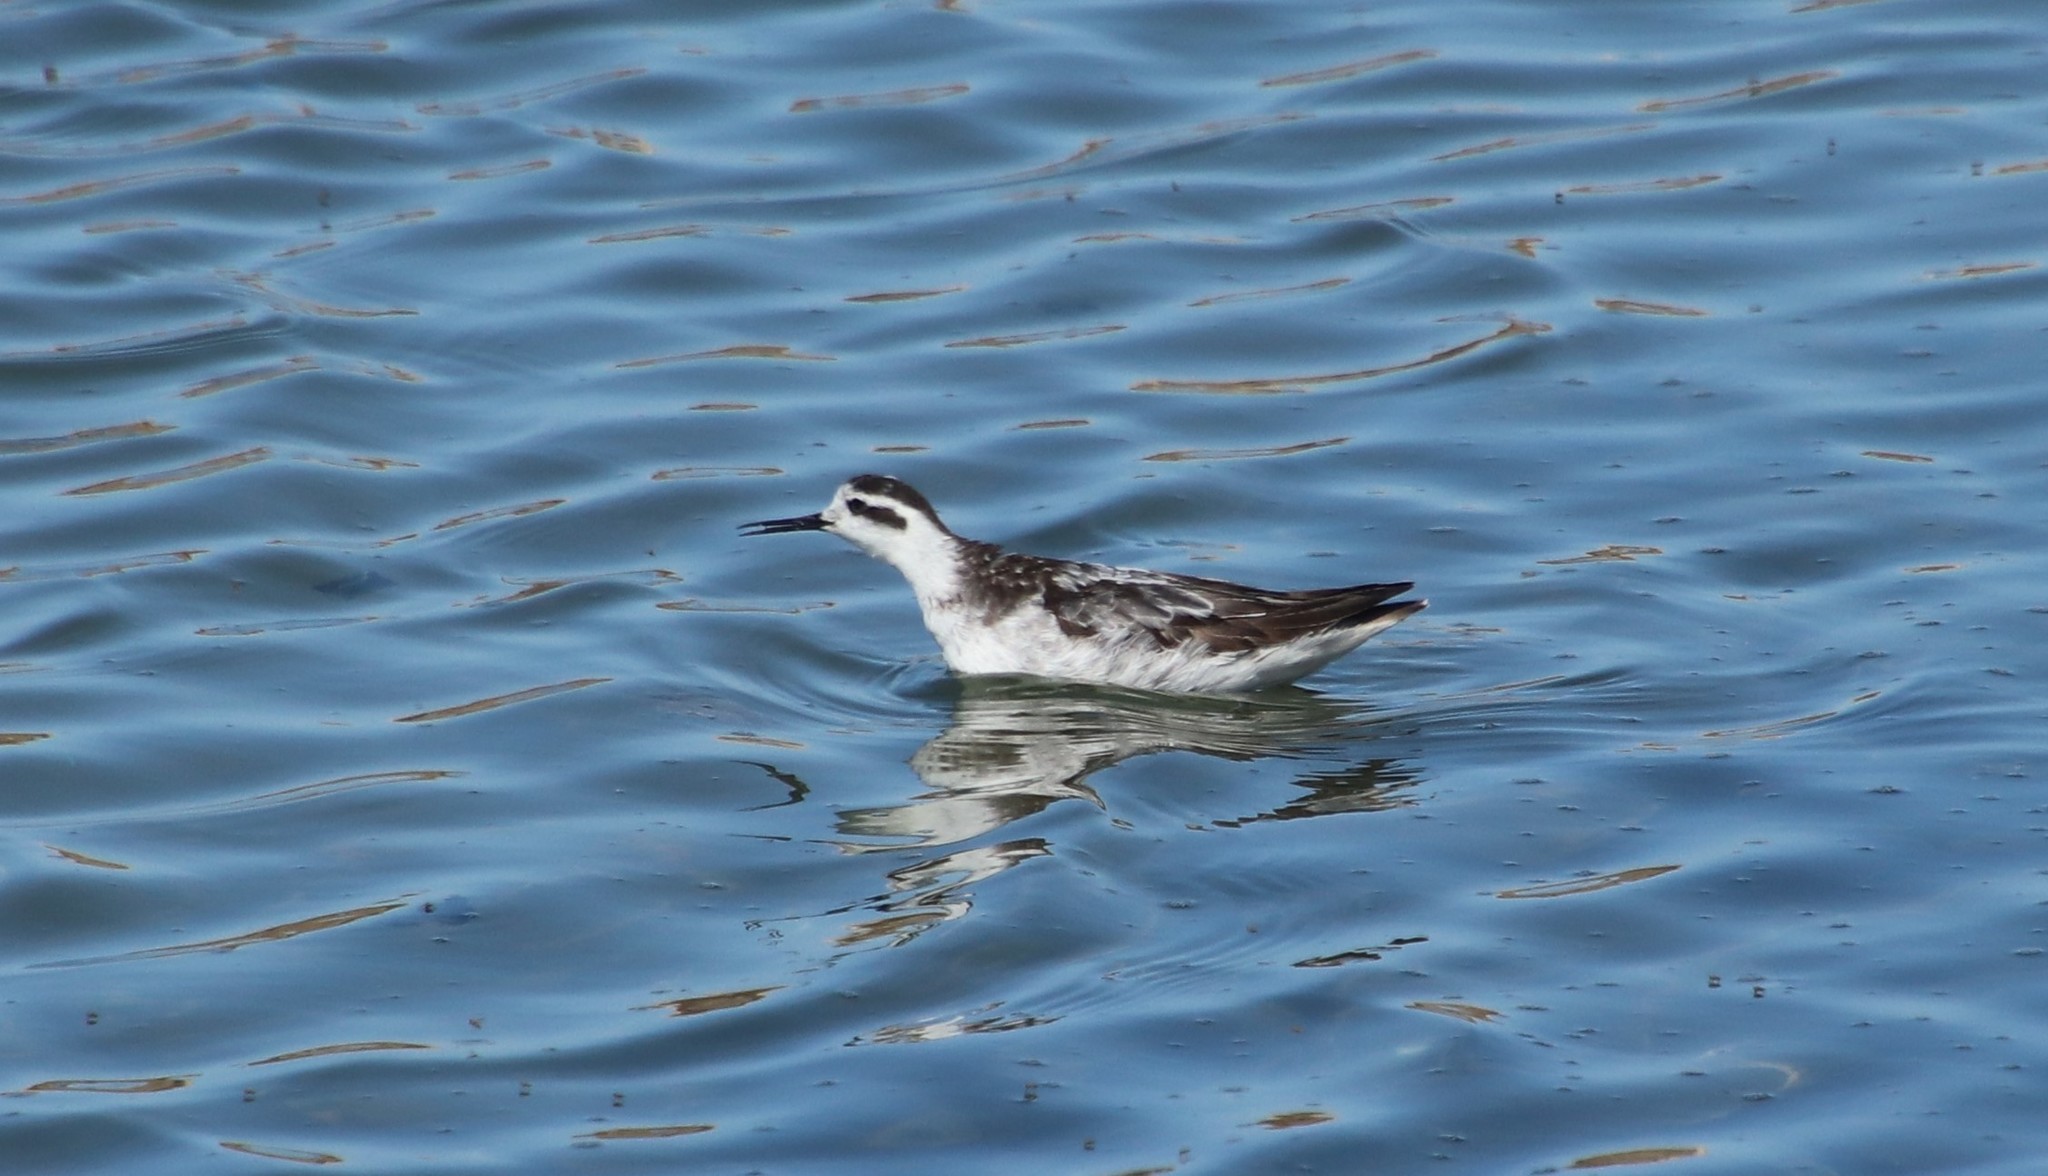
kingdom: Animalia
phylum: Chordata
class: Aves
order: Charadriiformes
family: Scolopacidae
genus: Phalaropus
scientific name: Phalaropus lobatus
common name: Red-necked phalarope
